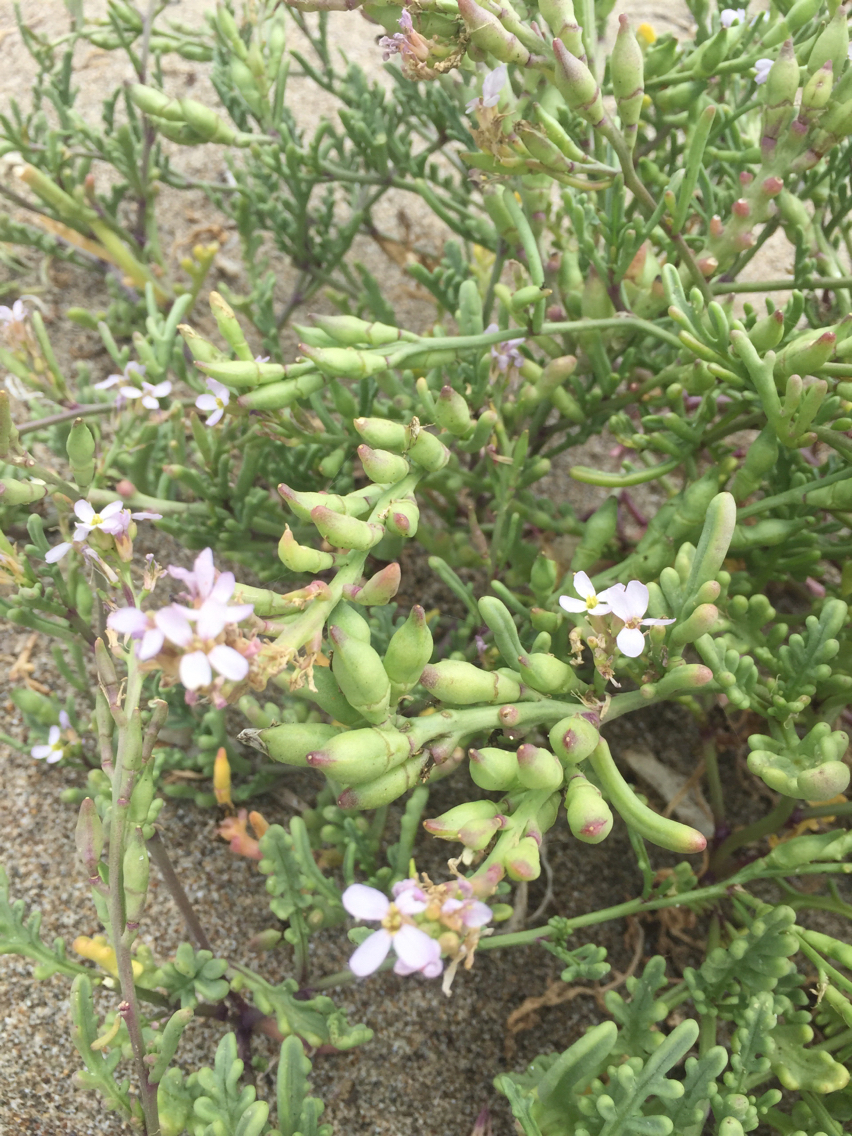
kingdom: Plantae
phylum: Tracheophyta
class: Magnoliopsida
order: Brassicales
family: Brassicaceae
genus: Cakile
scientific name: Cakile maritima
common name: Sea rocket
